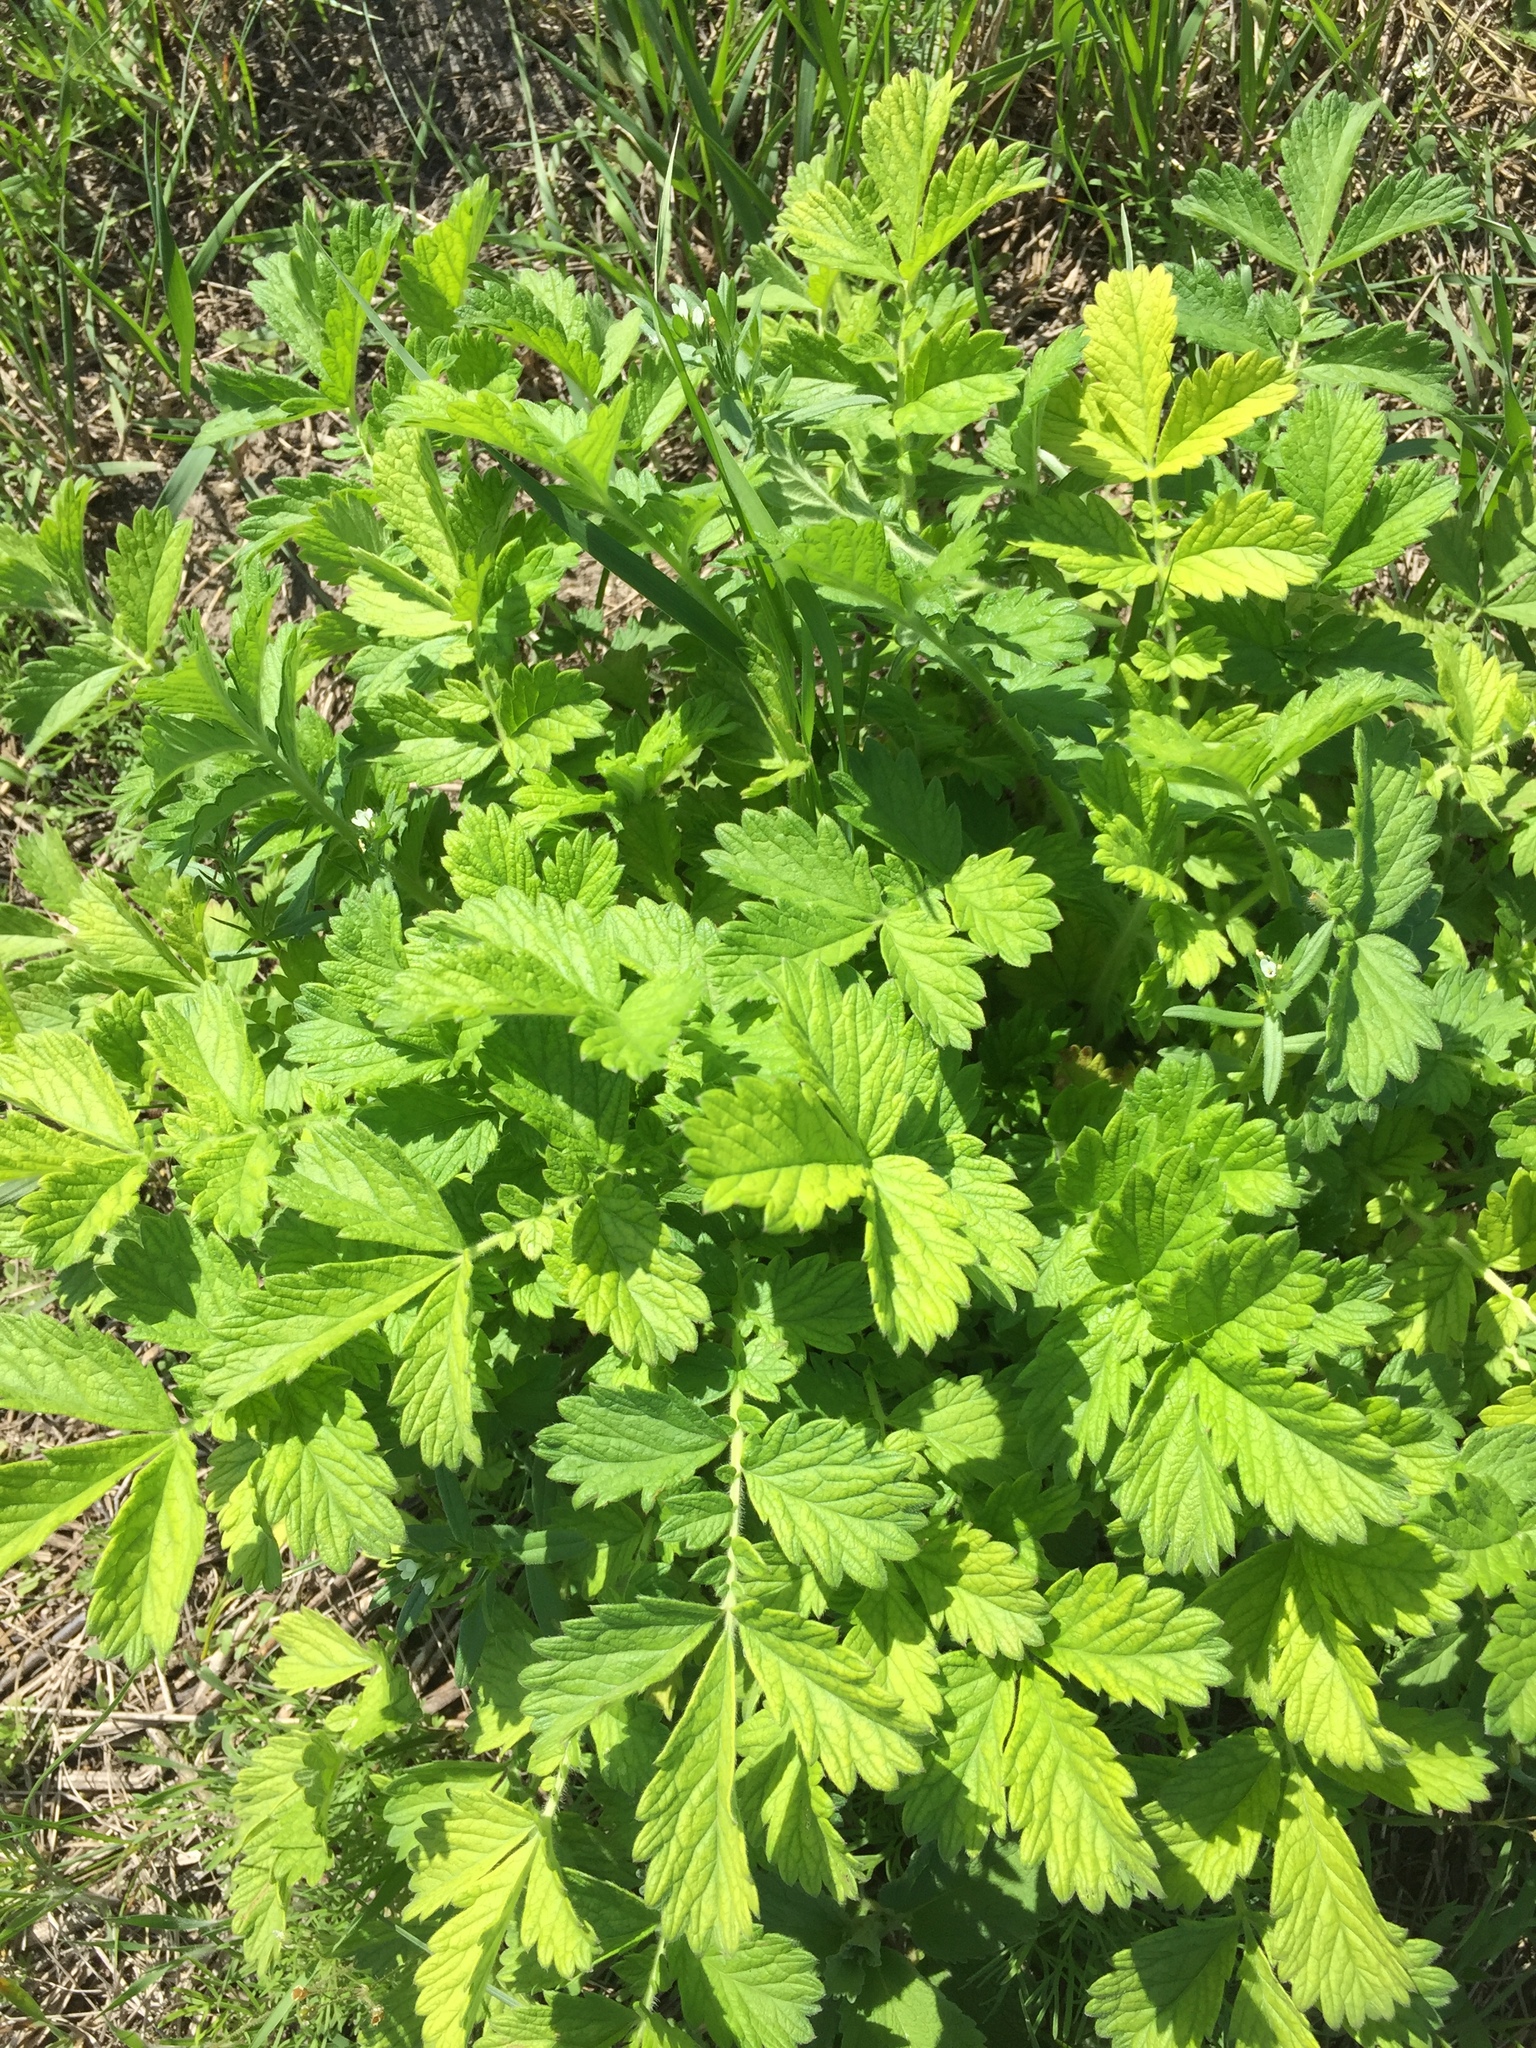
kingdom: Plantae
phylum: Tracheophyta
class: Magnoliopsida
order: Rosales
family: Rosaceae
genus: Agrimonia
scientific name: Agrimonia eupatoria
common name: Agrimony
